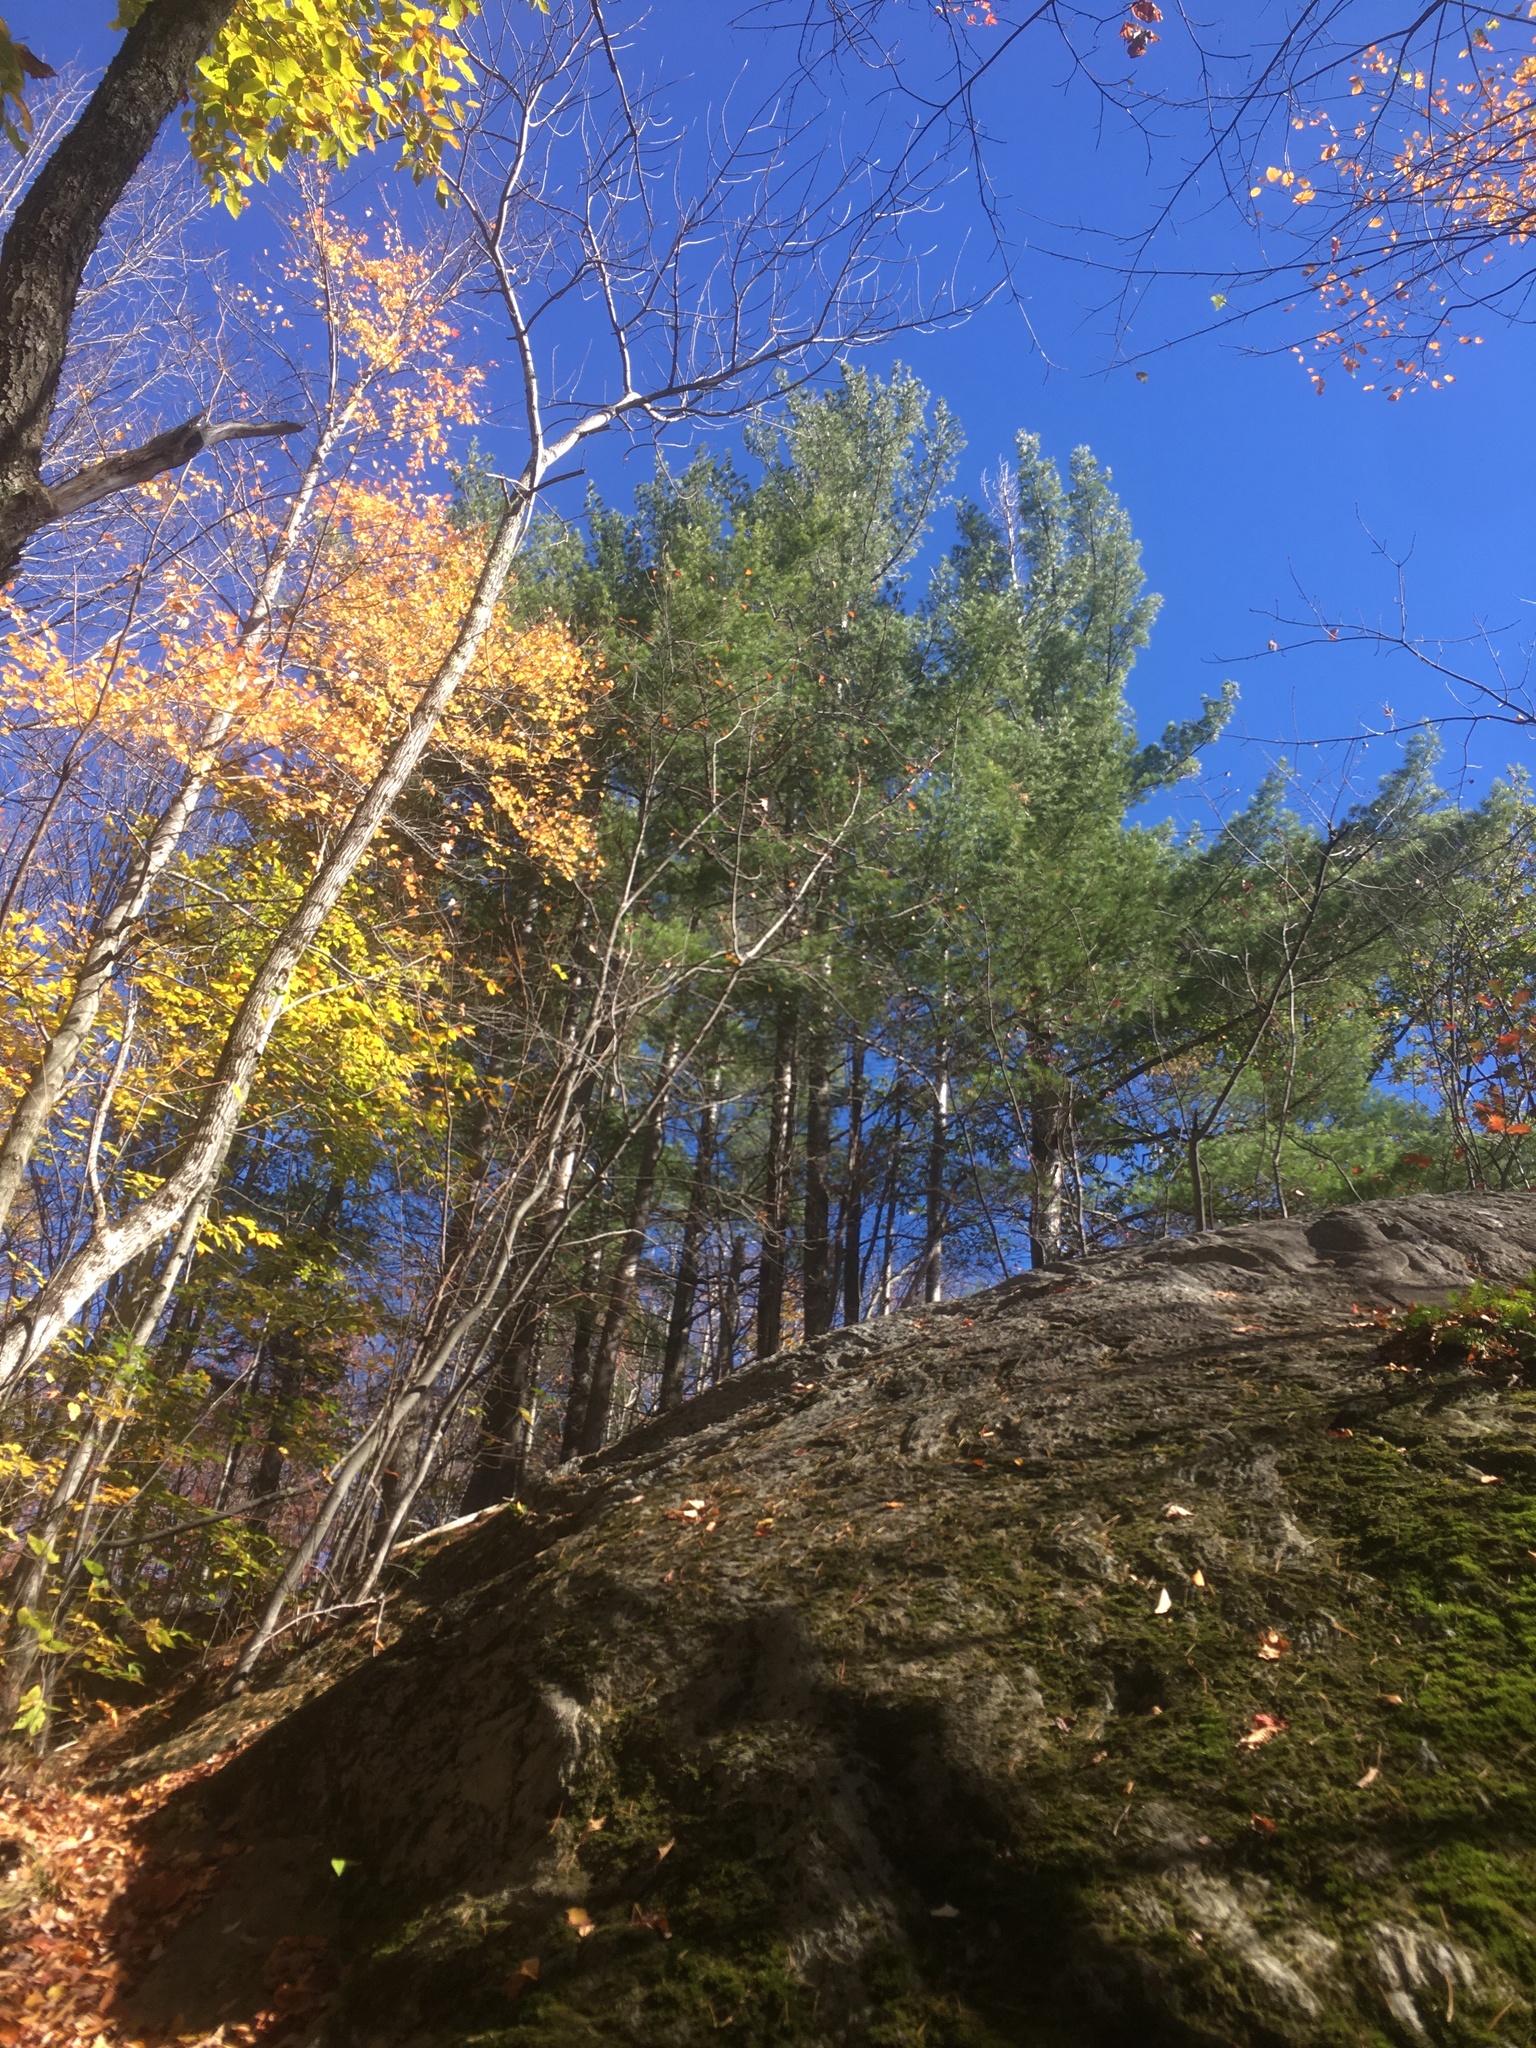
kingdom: Plantae
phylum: Tracheophyta
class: Pinopsida
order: Pinales
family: Pinaceae
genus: Pinus
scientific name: Pinus strobus
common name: Weymouth pine
